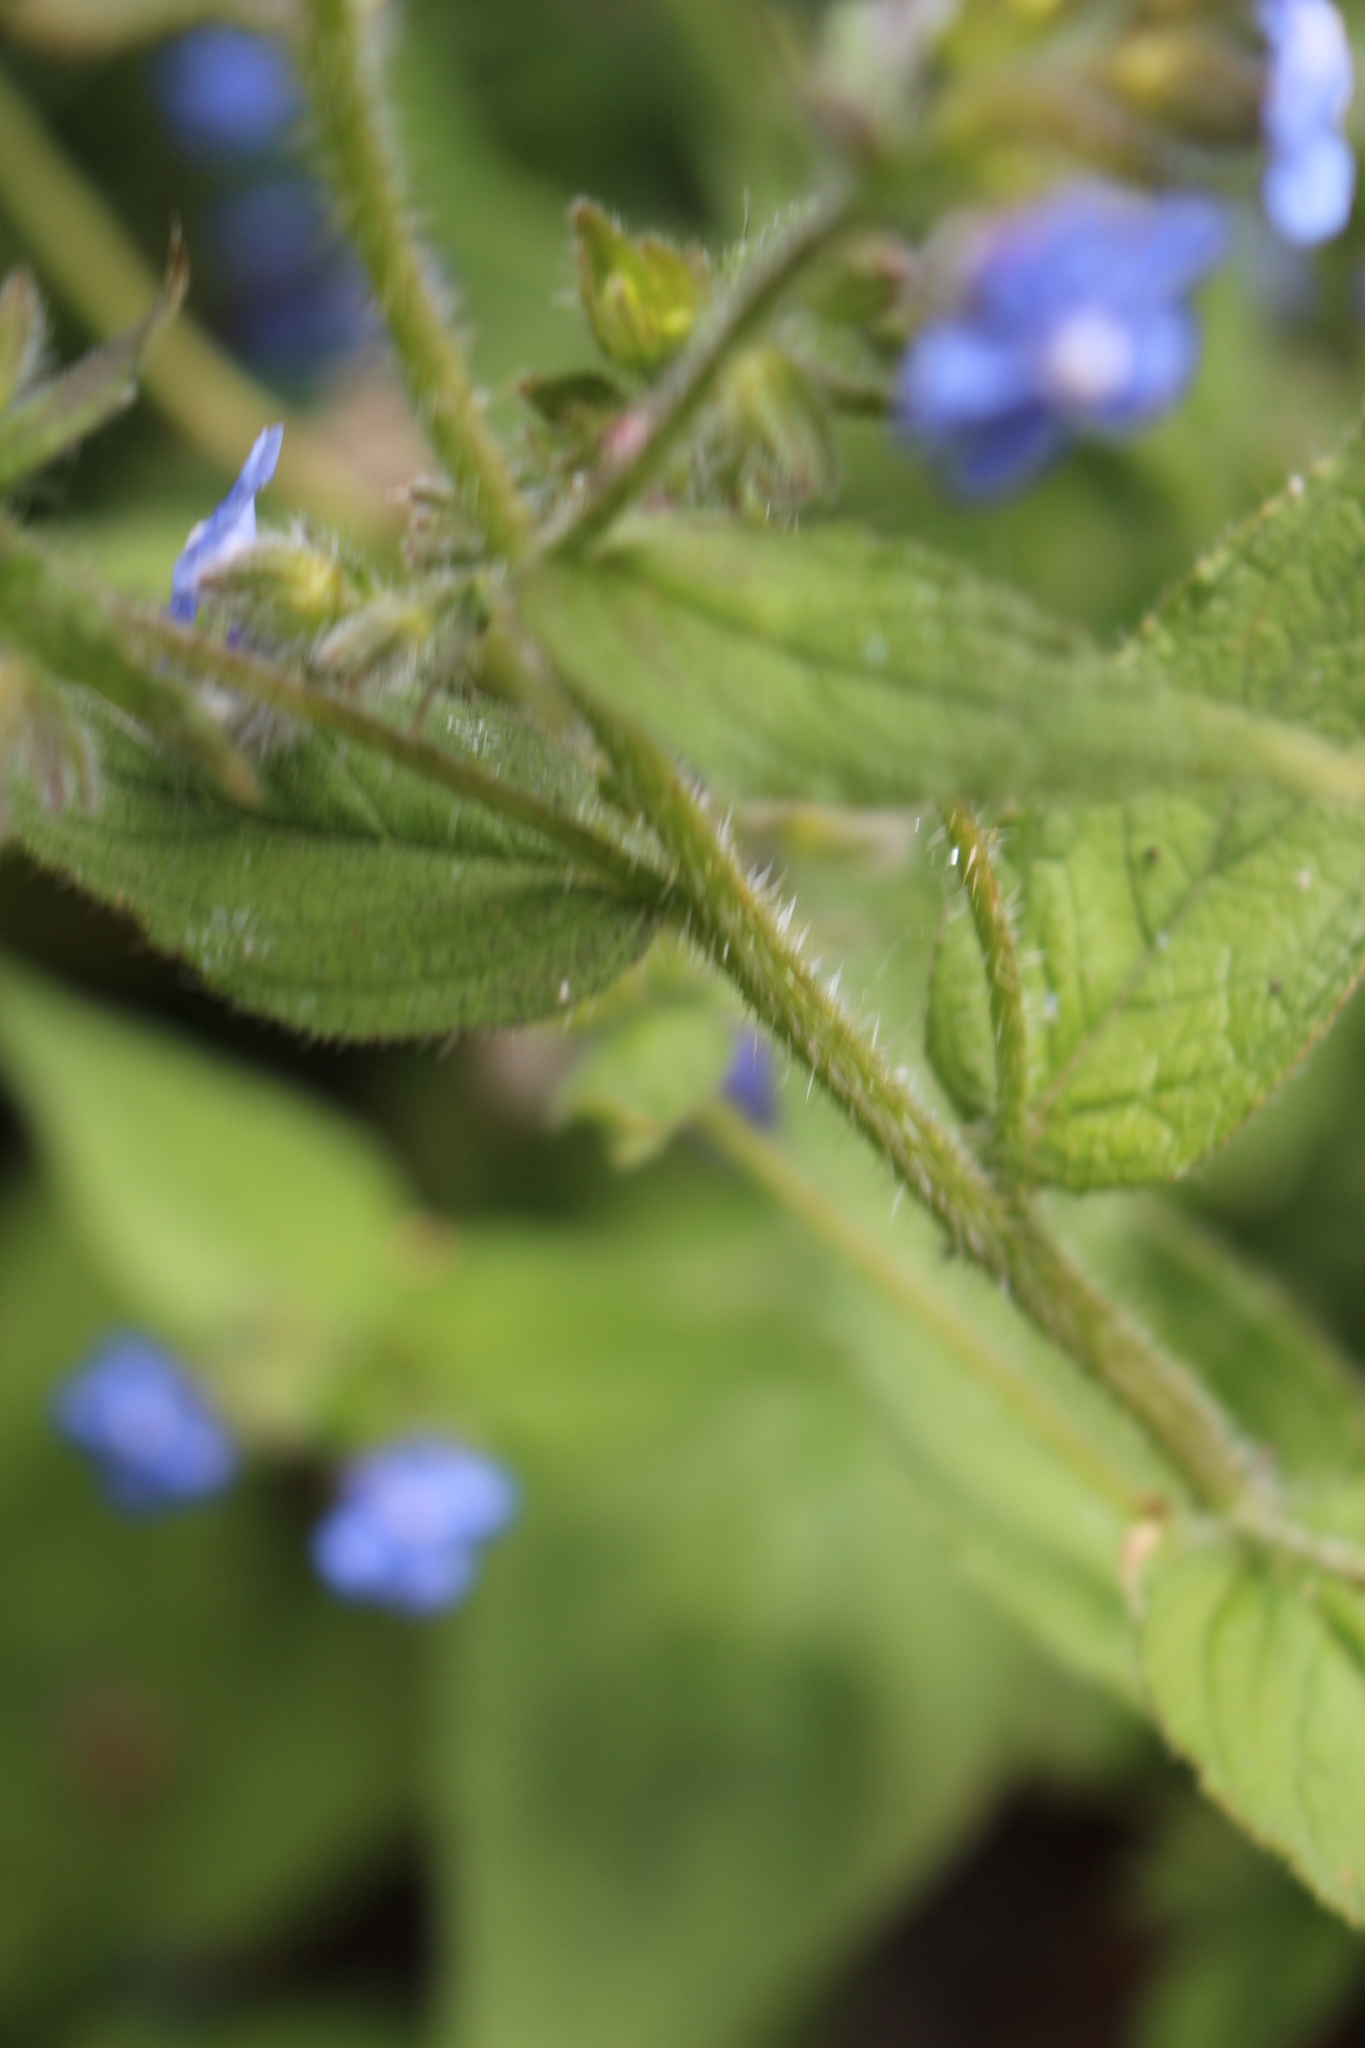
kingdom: Plantae
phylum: Tracheophyta
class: Magnoliopsida
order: Boraginales
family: Boraginaceae
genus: Pentaglottis
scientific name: Pentaglottis sempervirens
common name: Green alkanet
